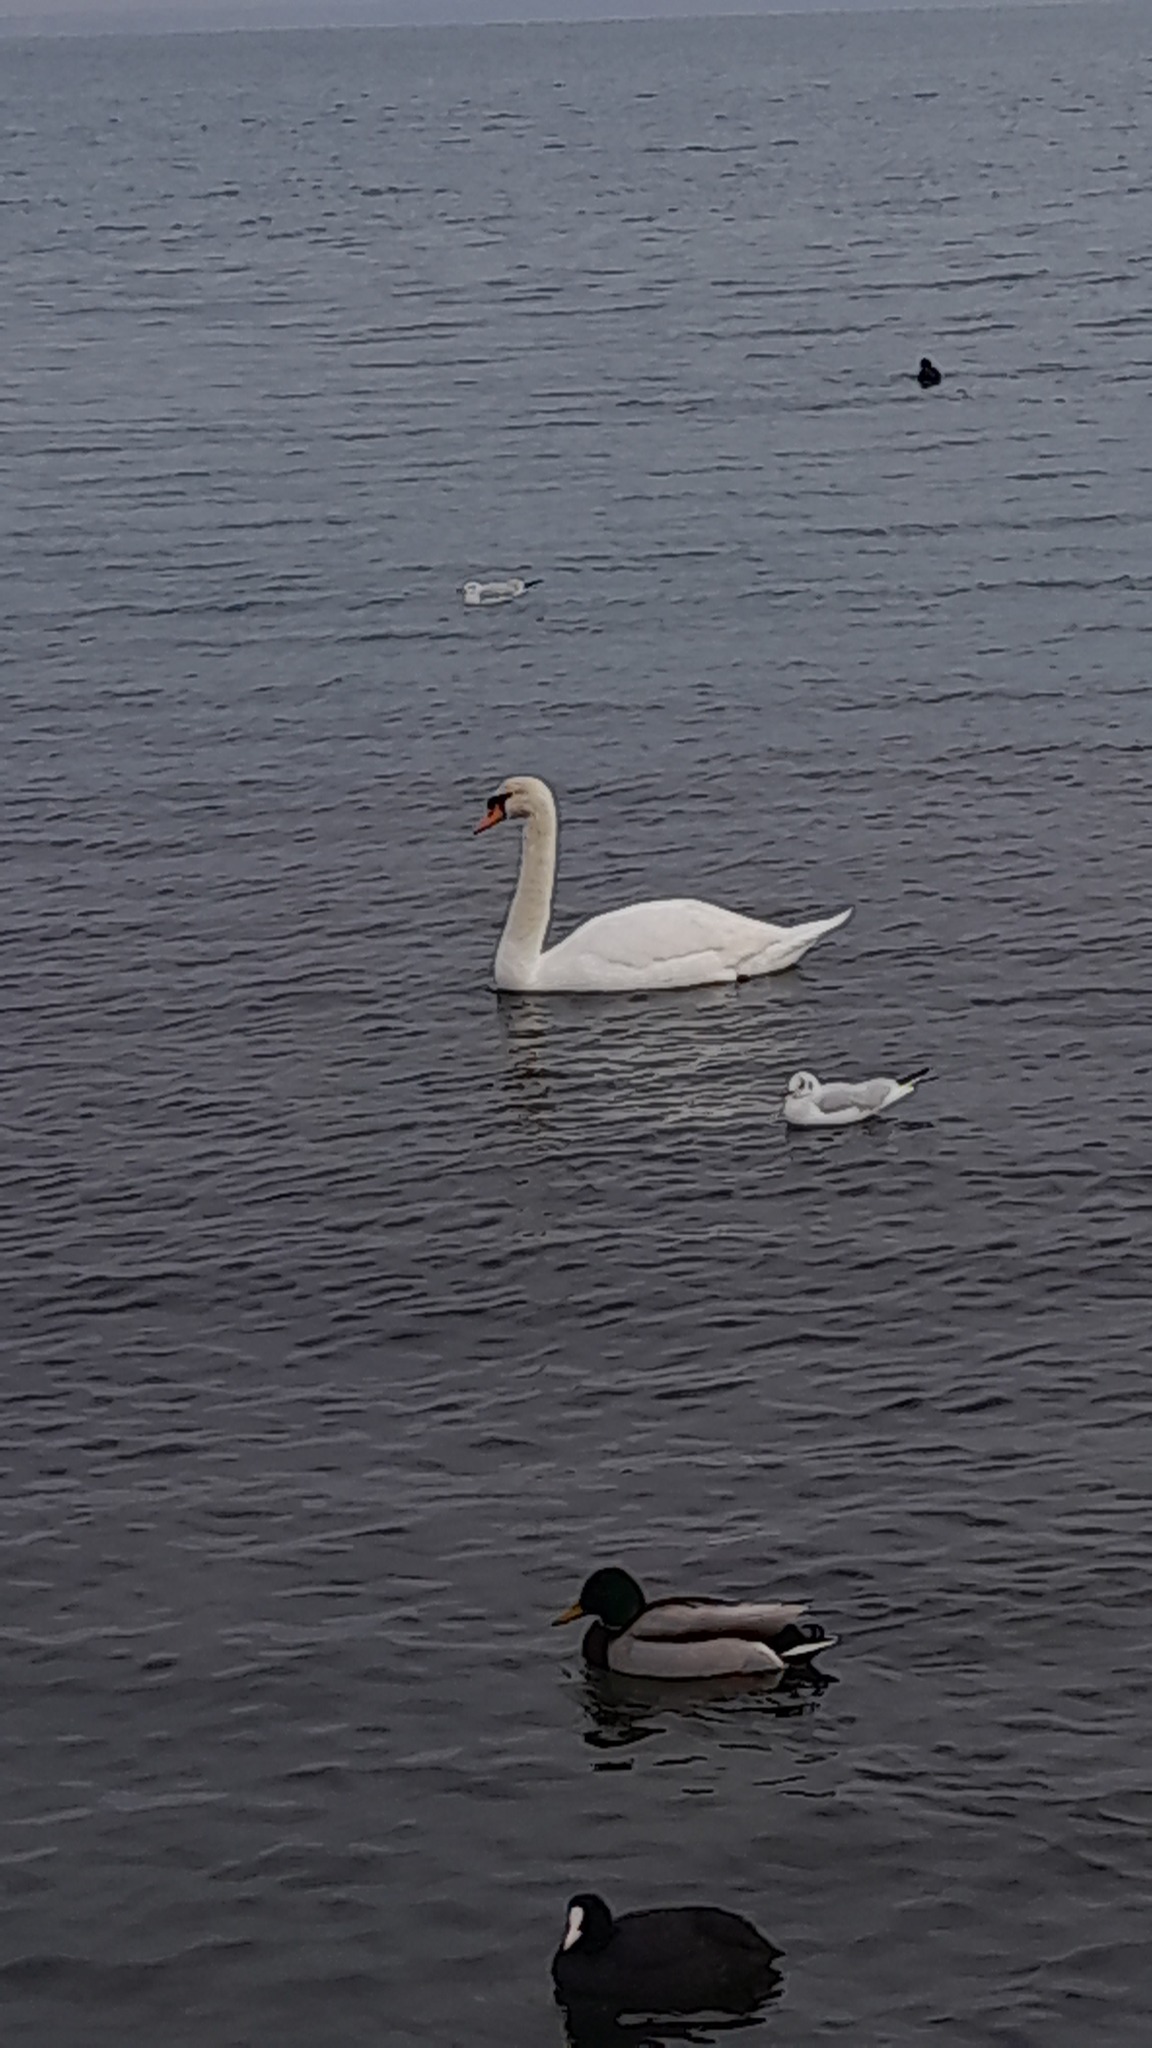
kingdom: Animalia
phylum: Chordata
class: Aves
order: Anseriformes
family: Anatidae
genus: Cygnus
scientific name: Cygnus olor
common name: Mute swan
